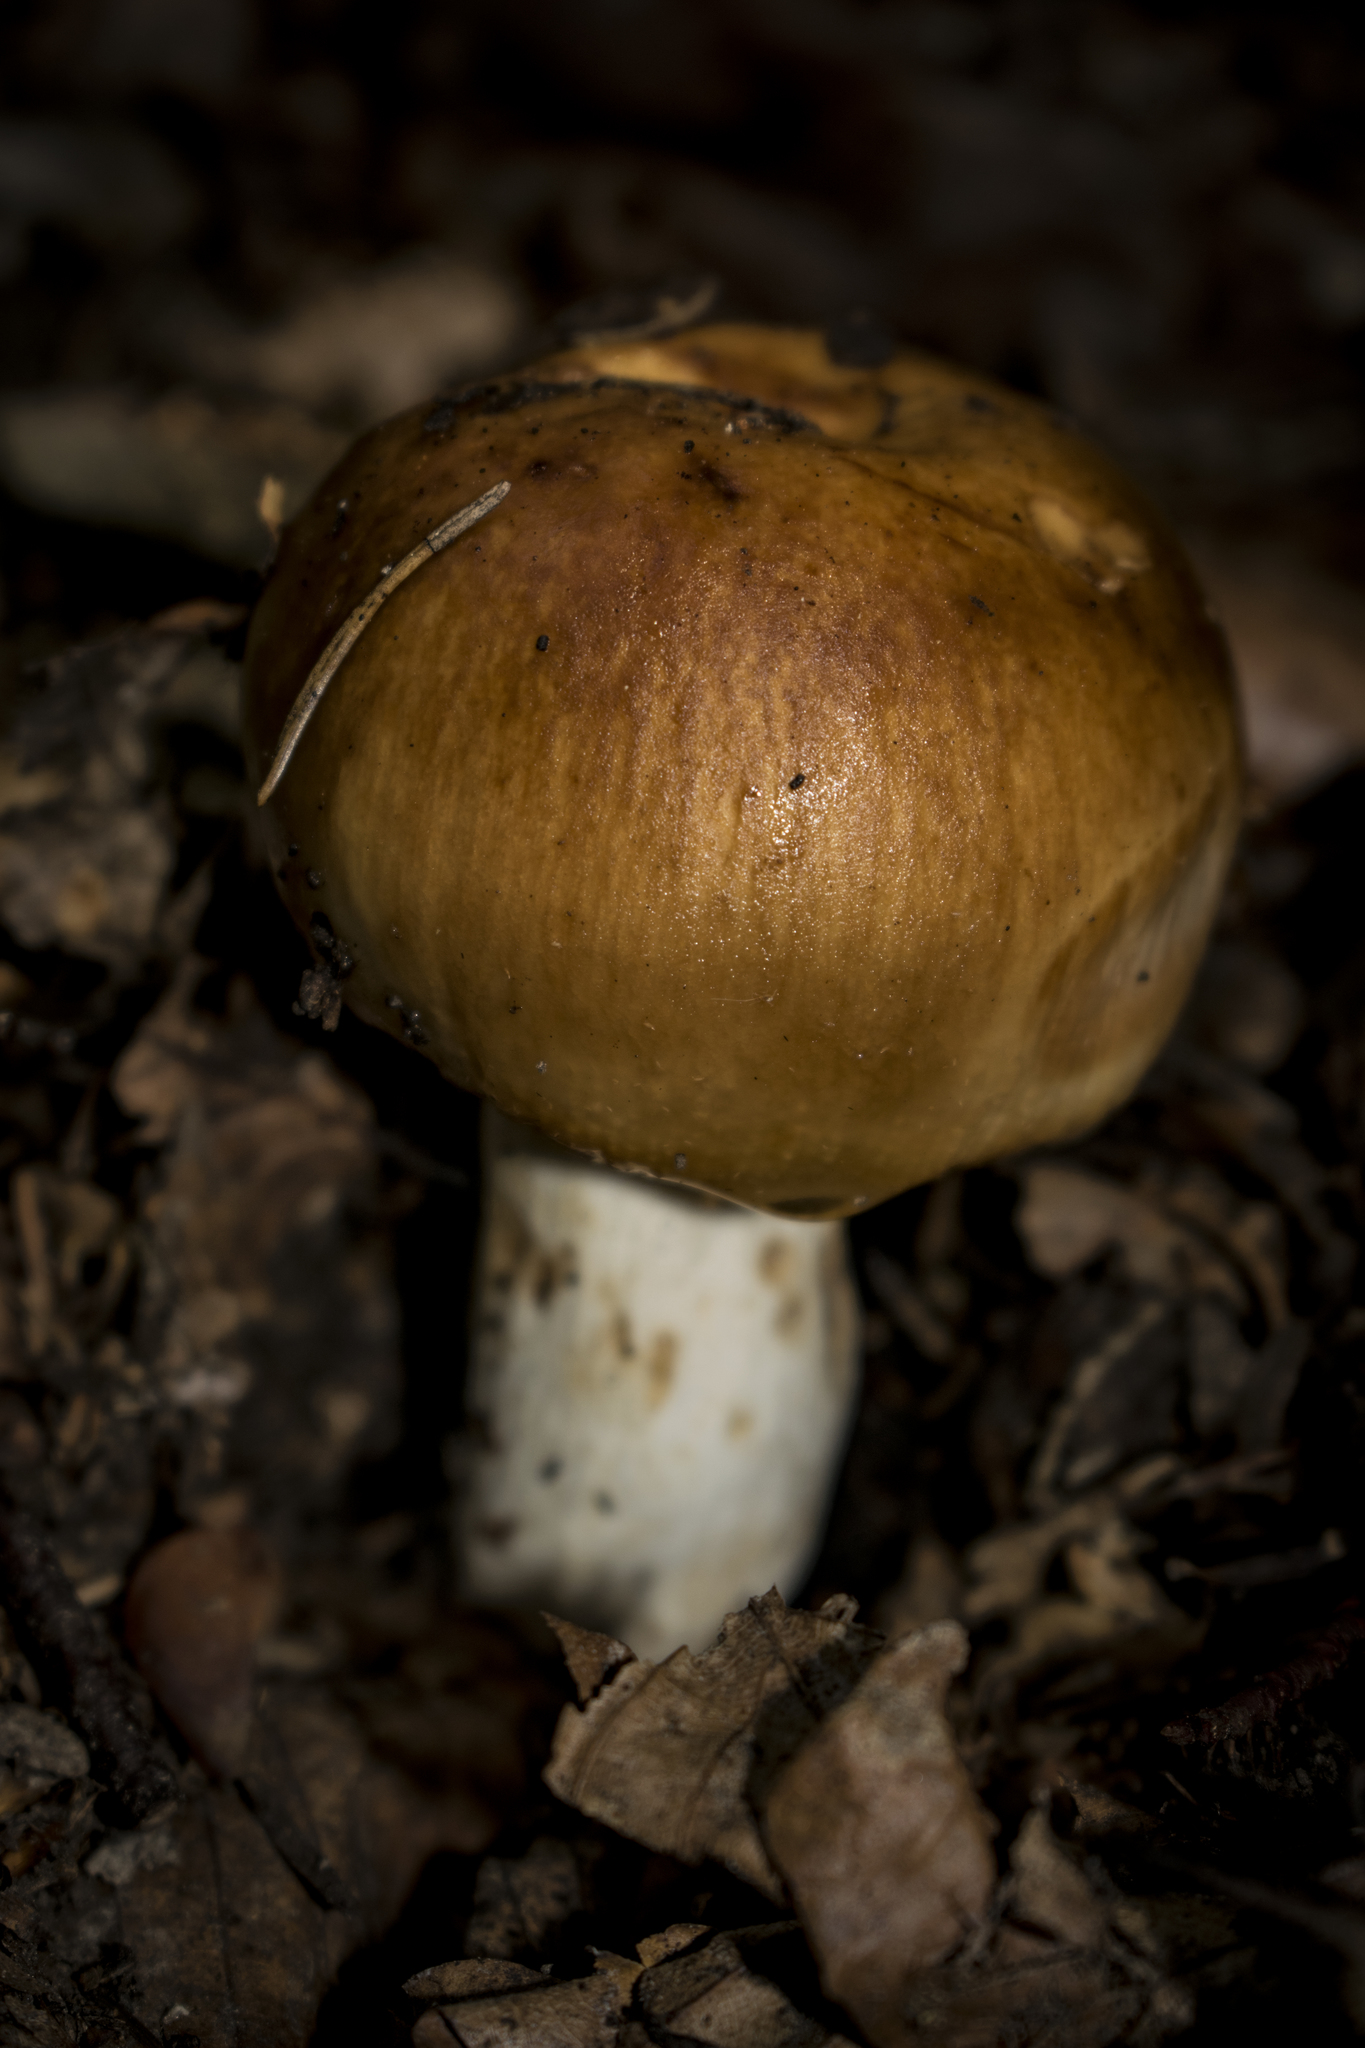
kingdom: Fungi
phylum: Basidiomycota
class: Agaricomycetes
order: Russulales
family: Russulaceae
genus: Russula
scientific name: Russula foetens
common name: Foetid russula
